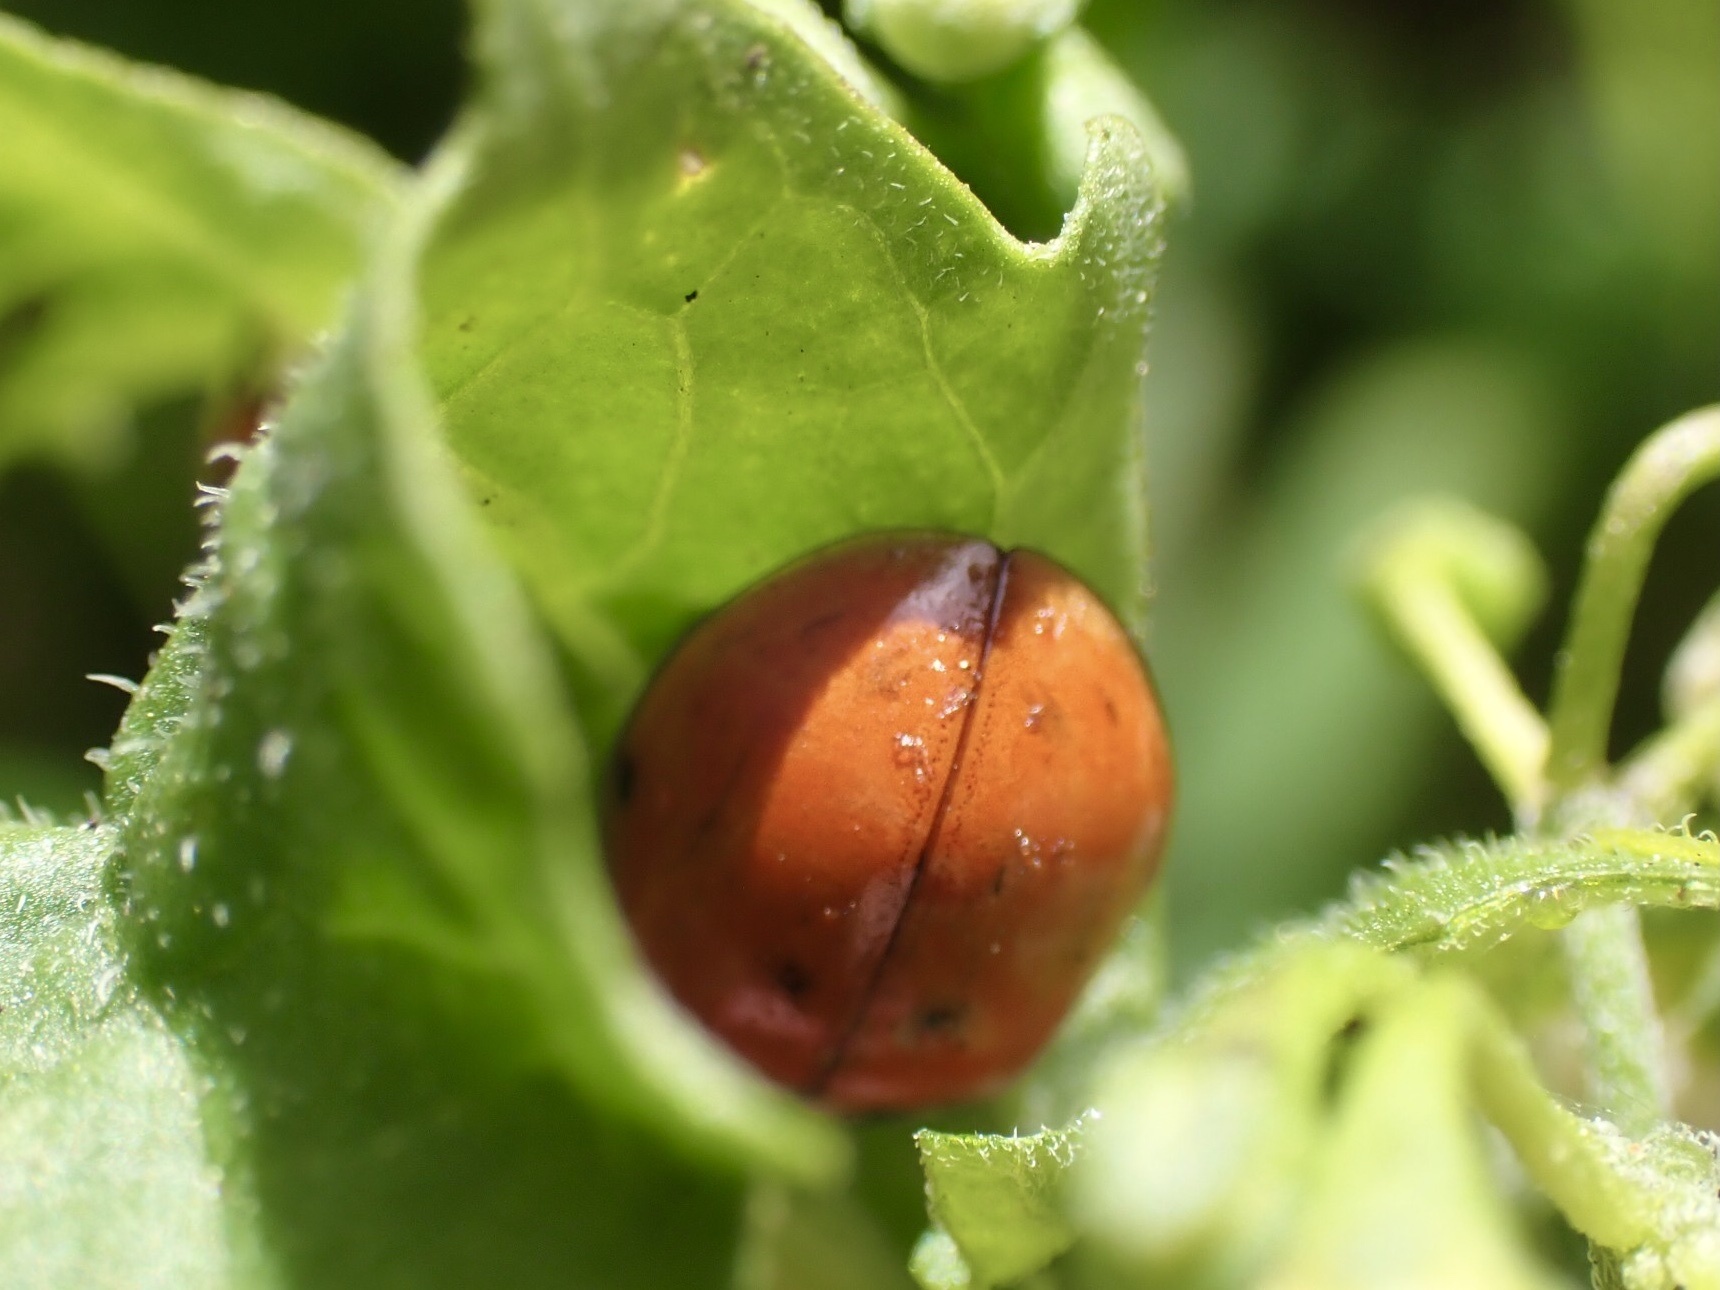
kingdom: Animalia
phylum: Arthropoda
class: Insecta
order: Coleoptera
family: Coccinellidae
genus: Harmonia
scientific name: Harmonia axyridis
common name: Harlequin ladybird
